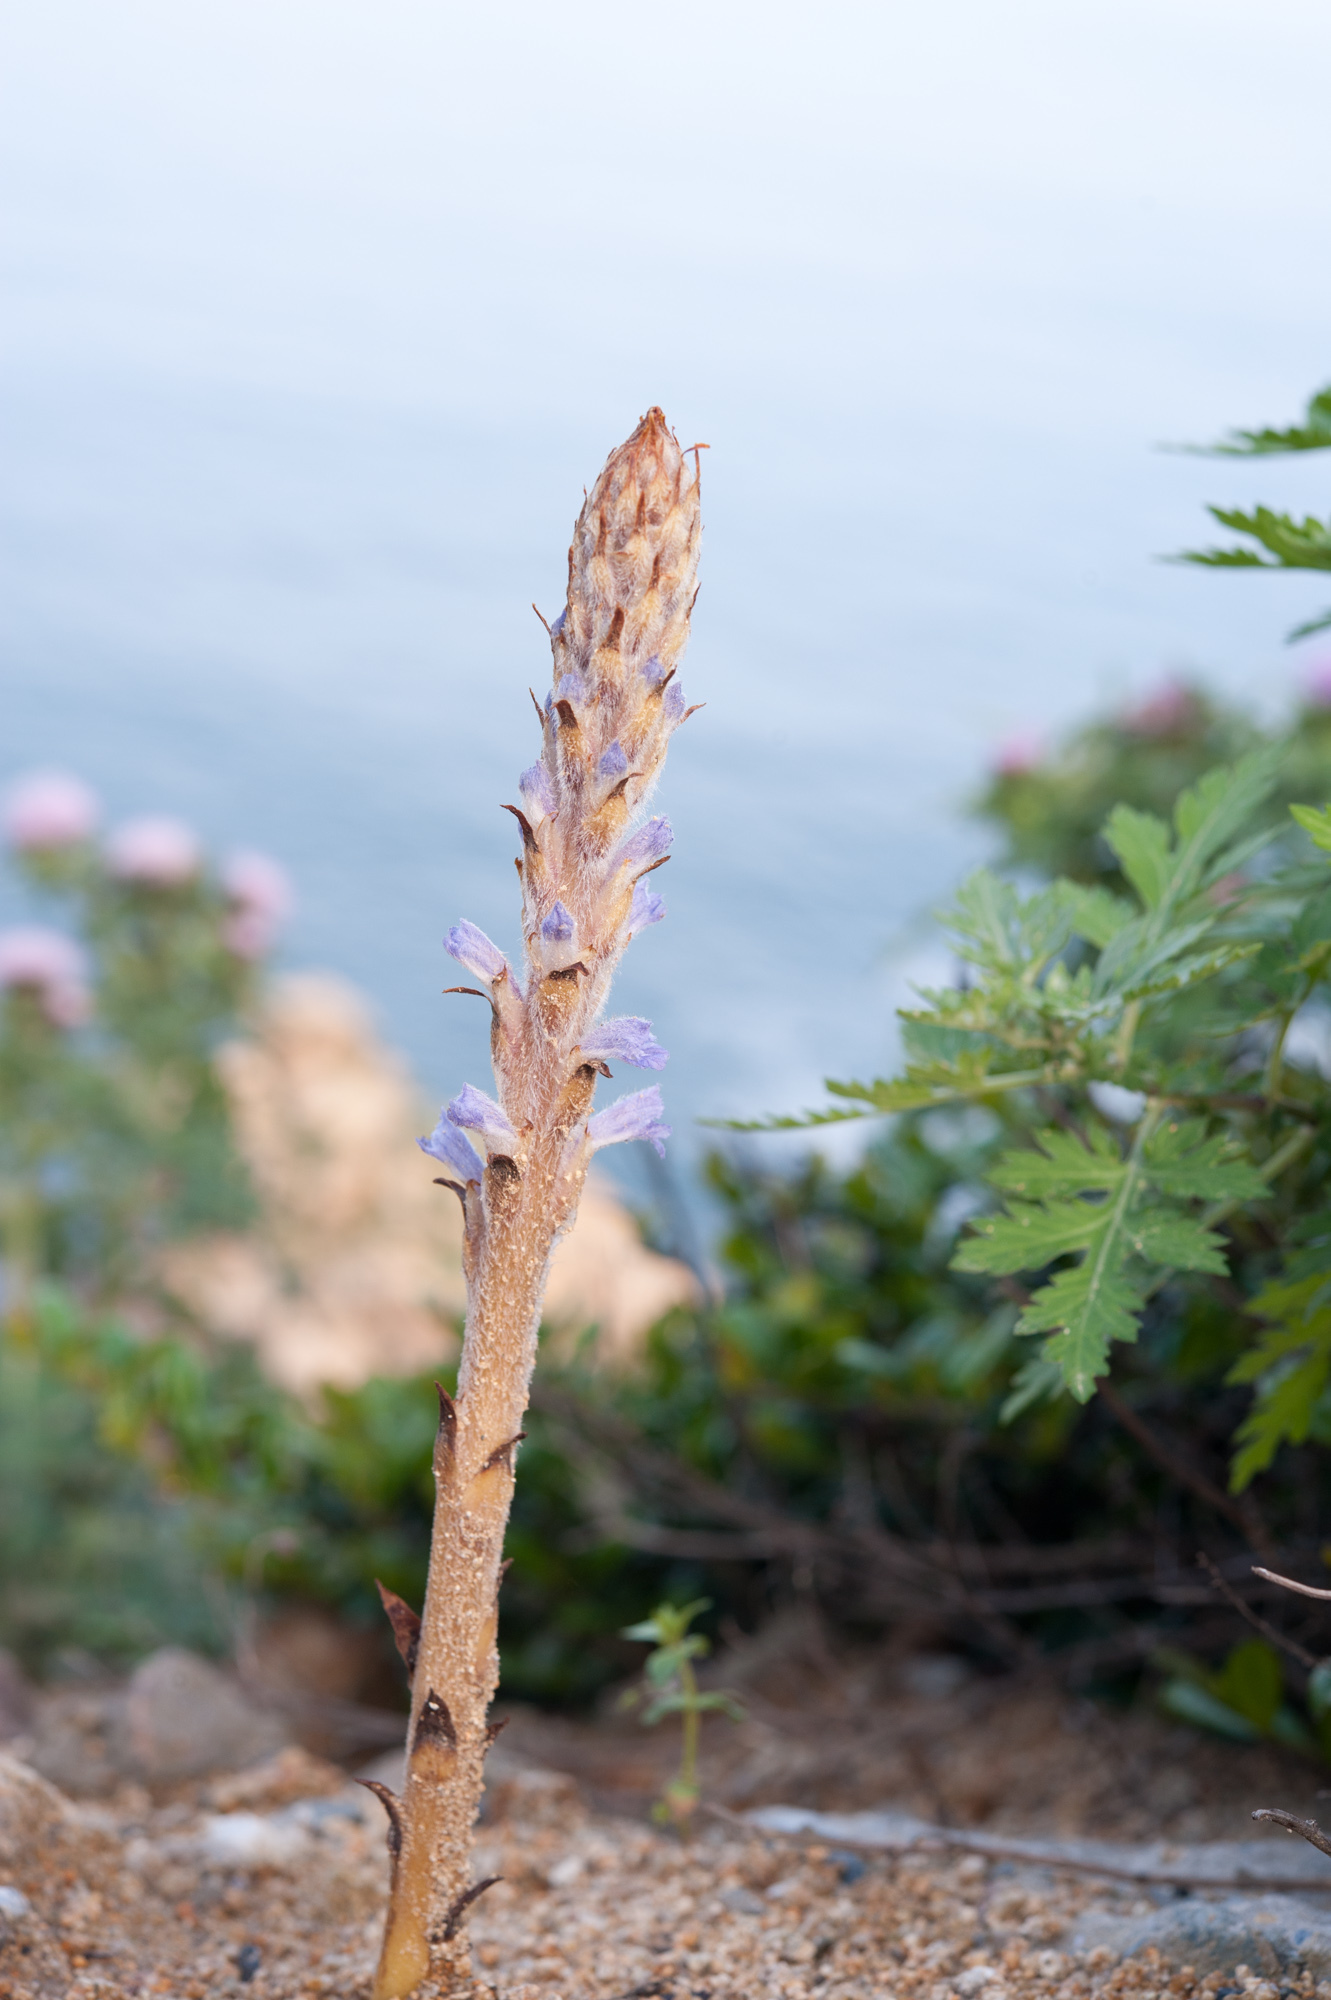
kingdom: Plantae
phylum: Tracheophyta
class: Magnoliopsida
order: Lamiales
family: Orobanchaceae
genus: Orobanche
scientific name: Orobanche coerulescens
